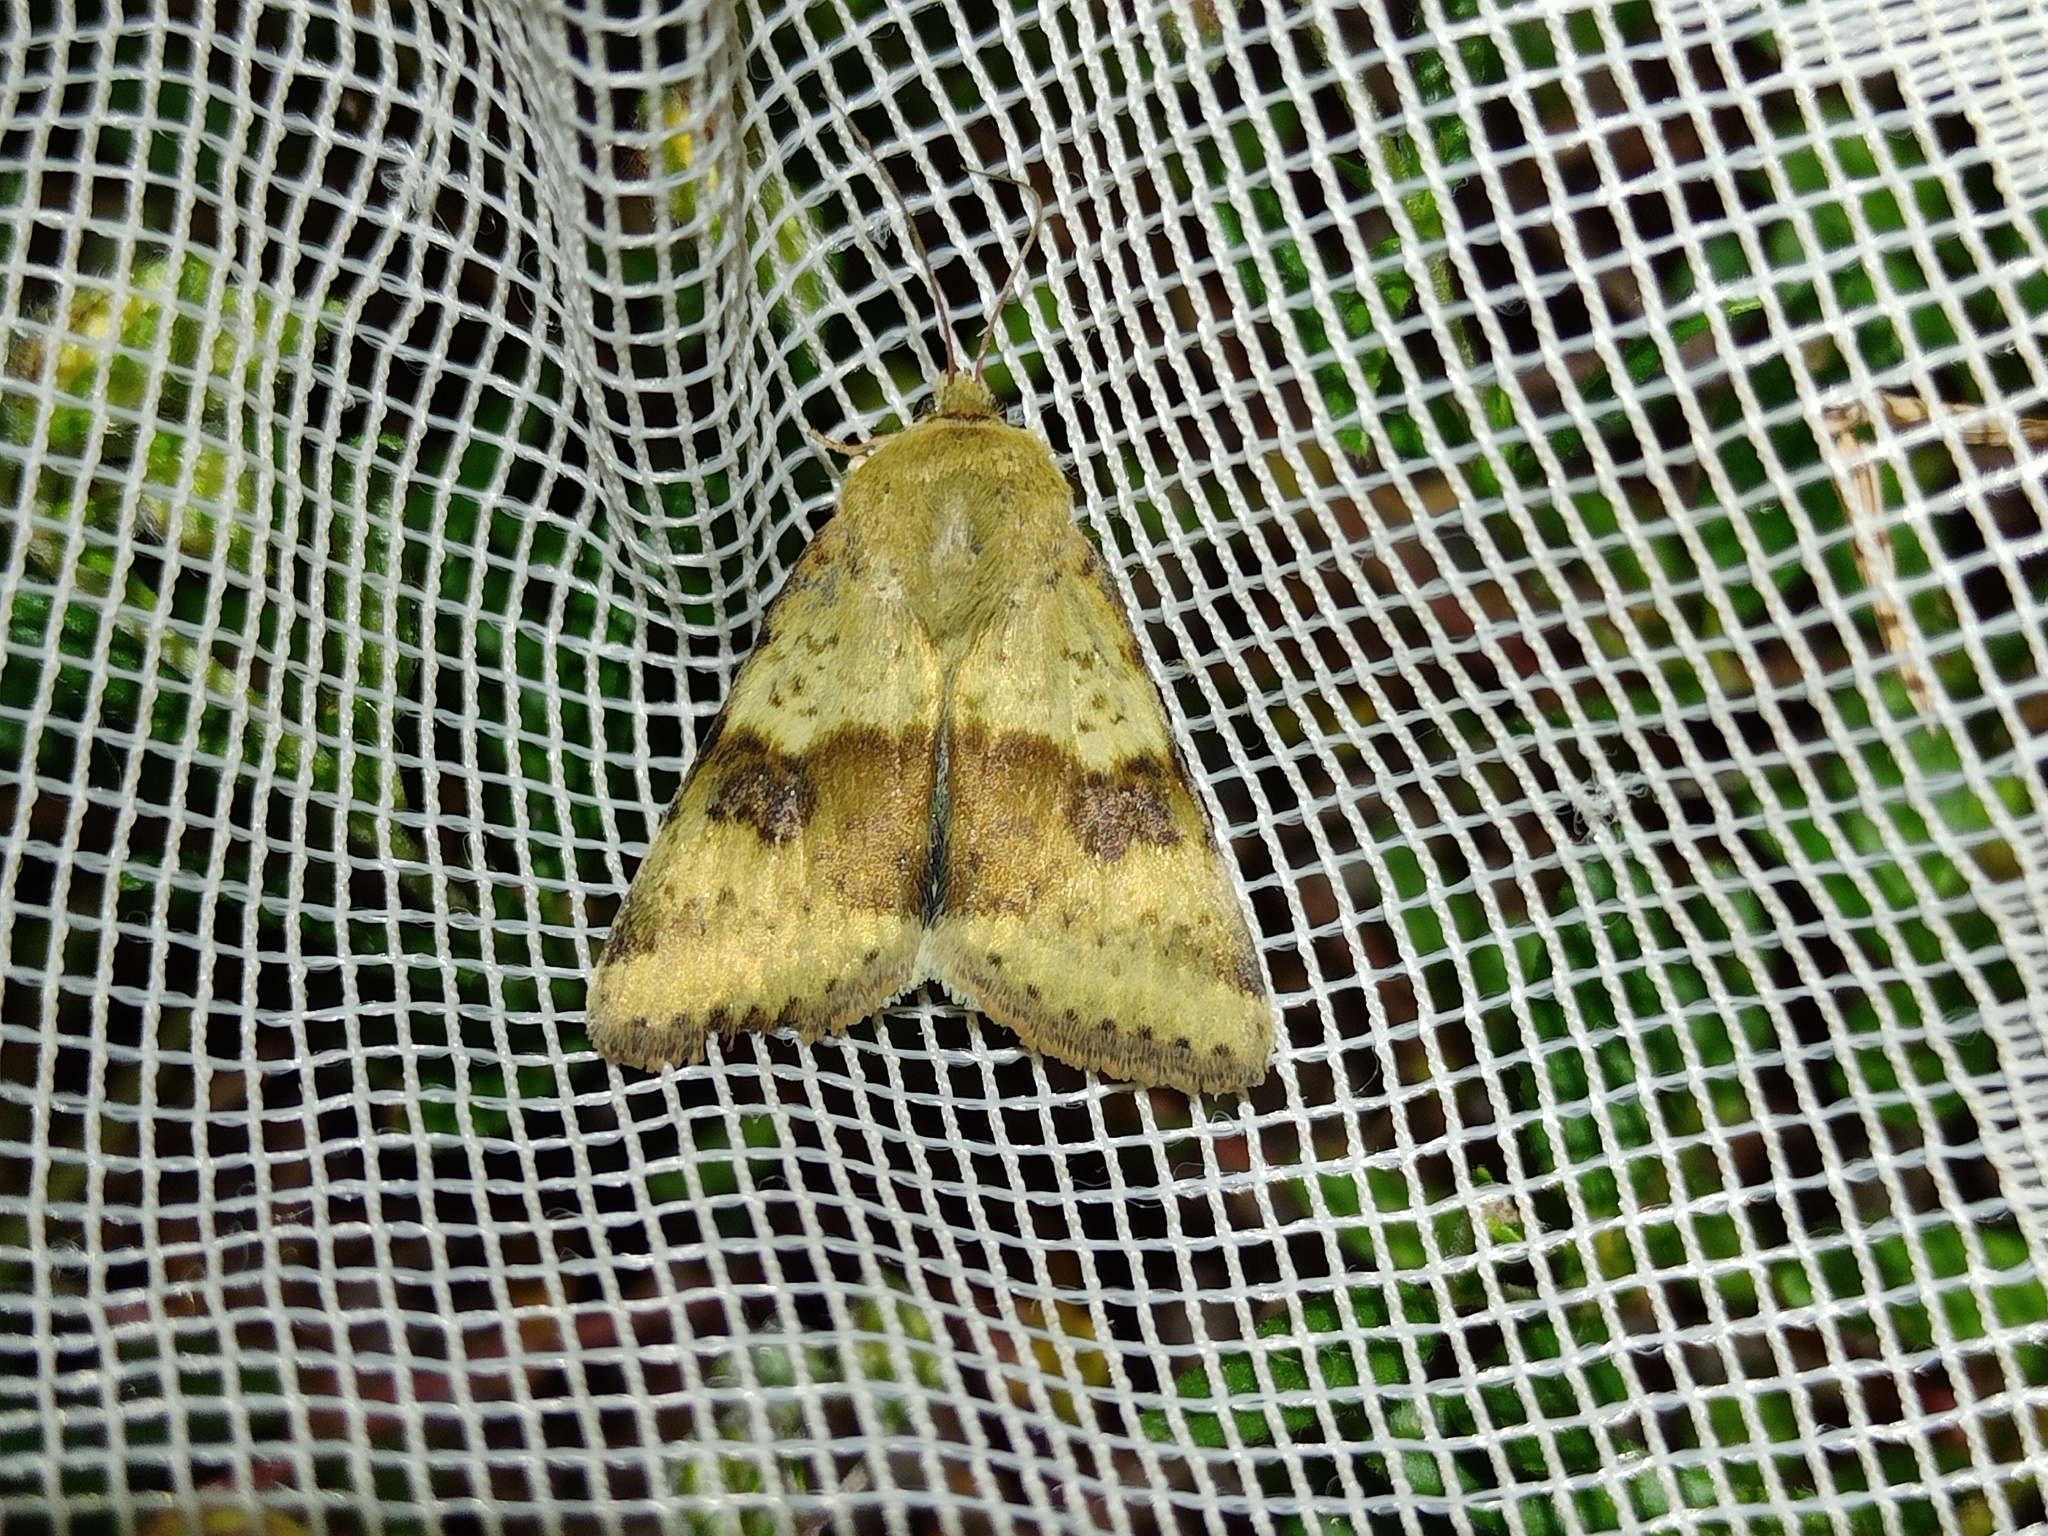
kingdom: Animalia
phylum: Arthropoda
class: Insecta
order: Lepidoptera
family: Noctuidae
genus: Heliothis
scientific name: Heliothis viriplaca
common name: Marbled clover
